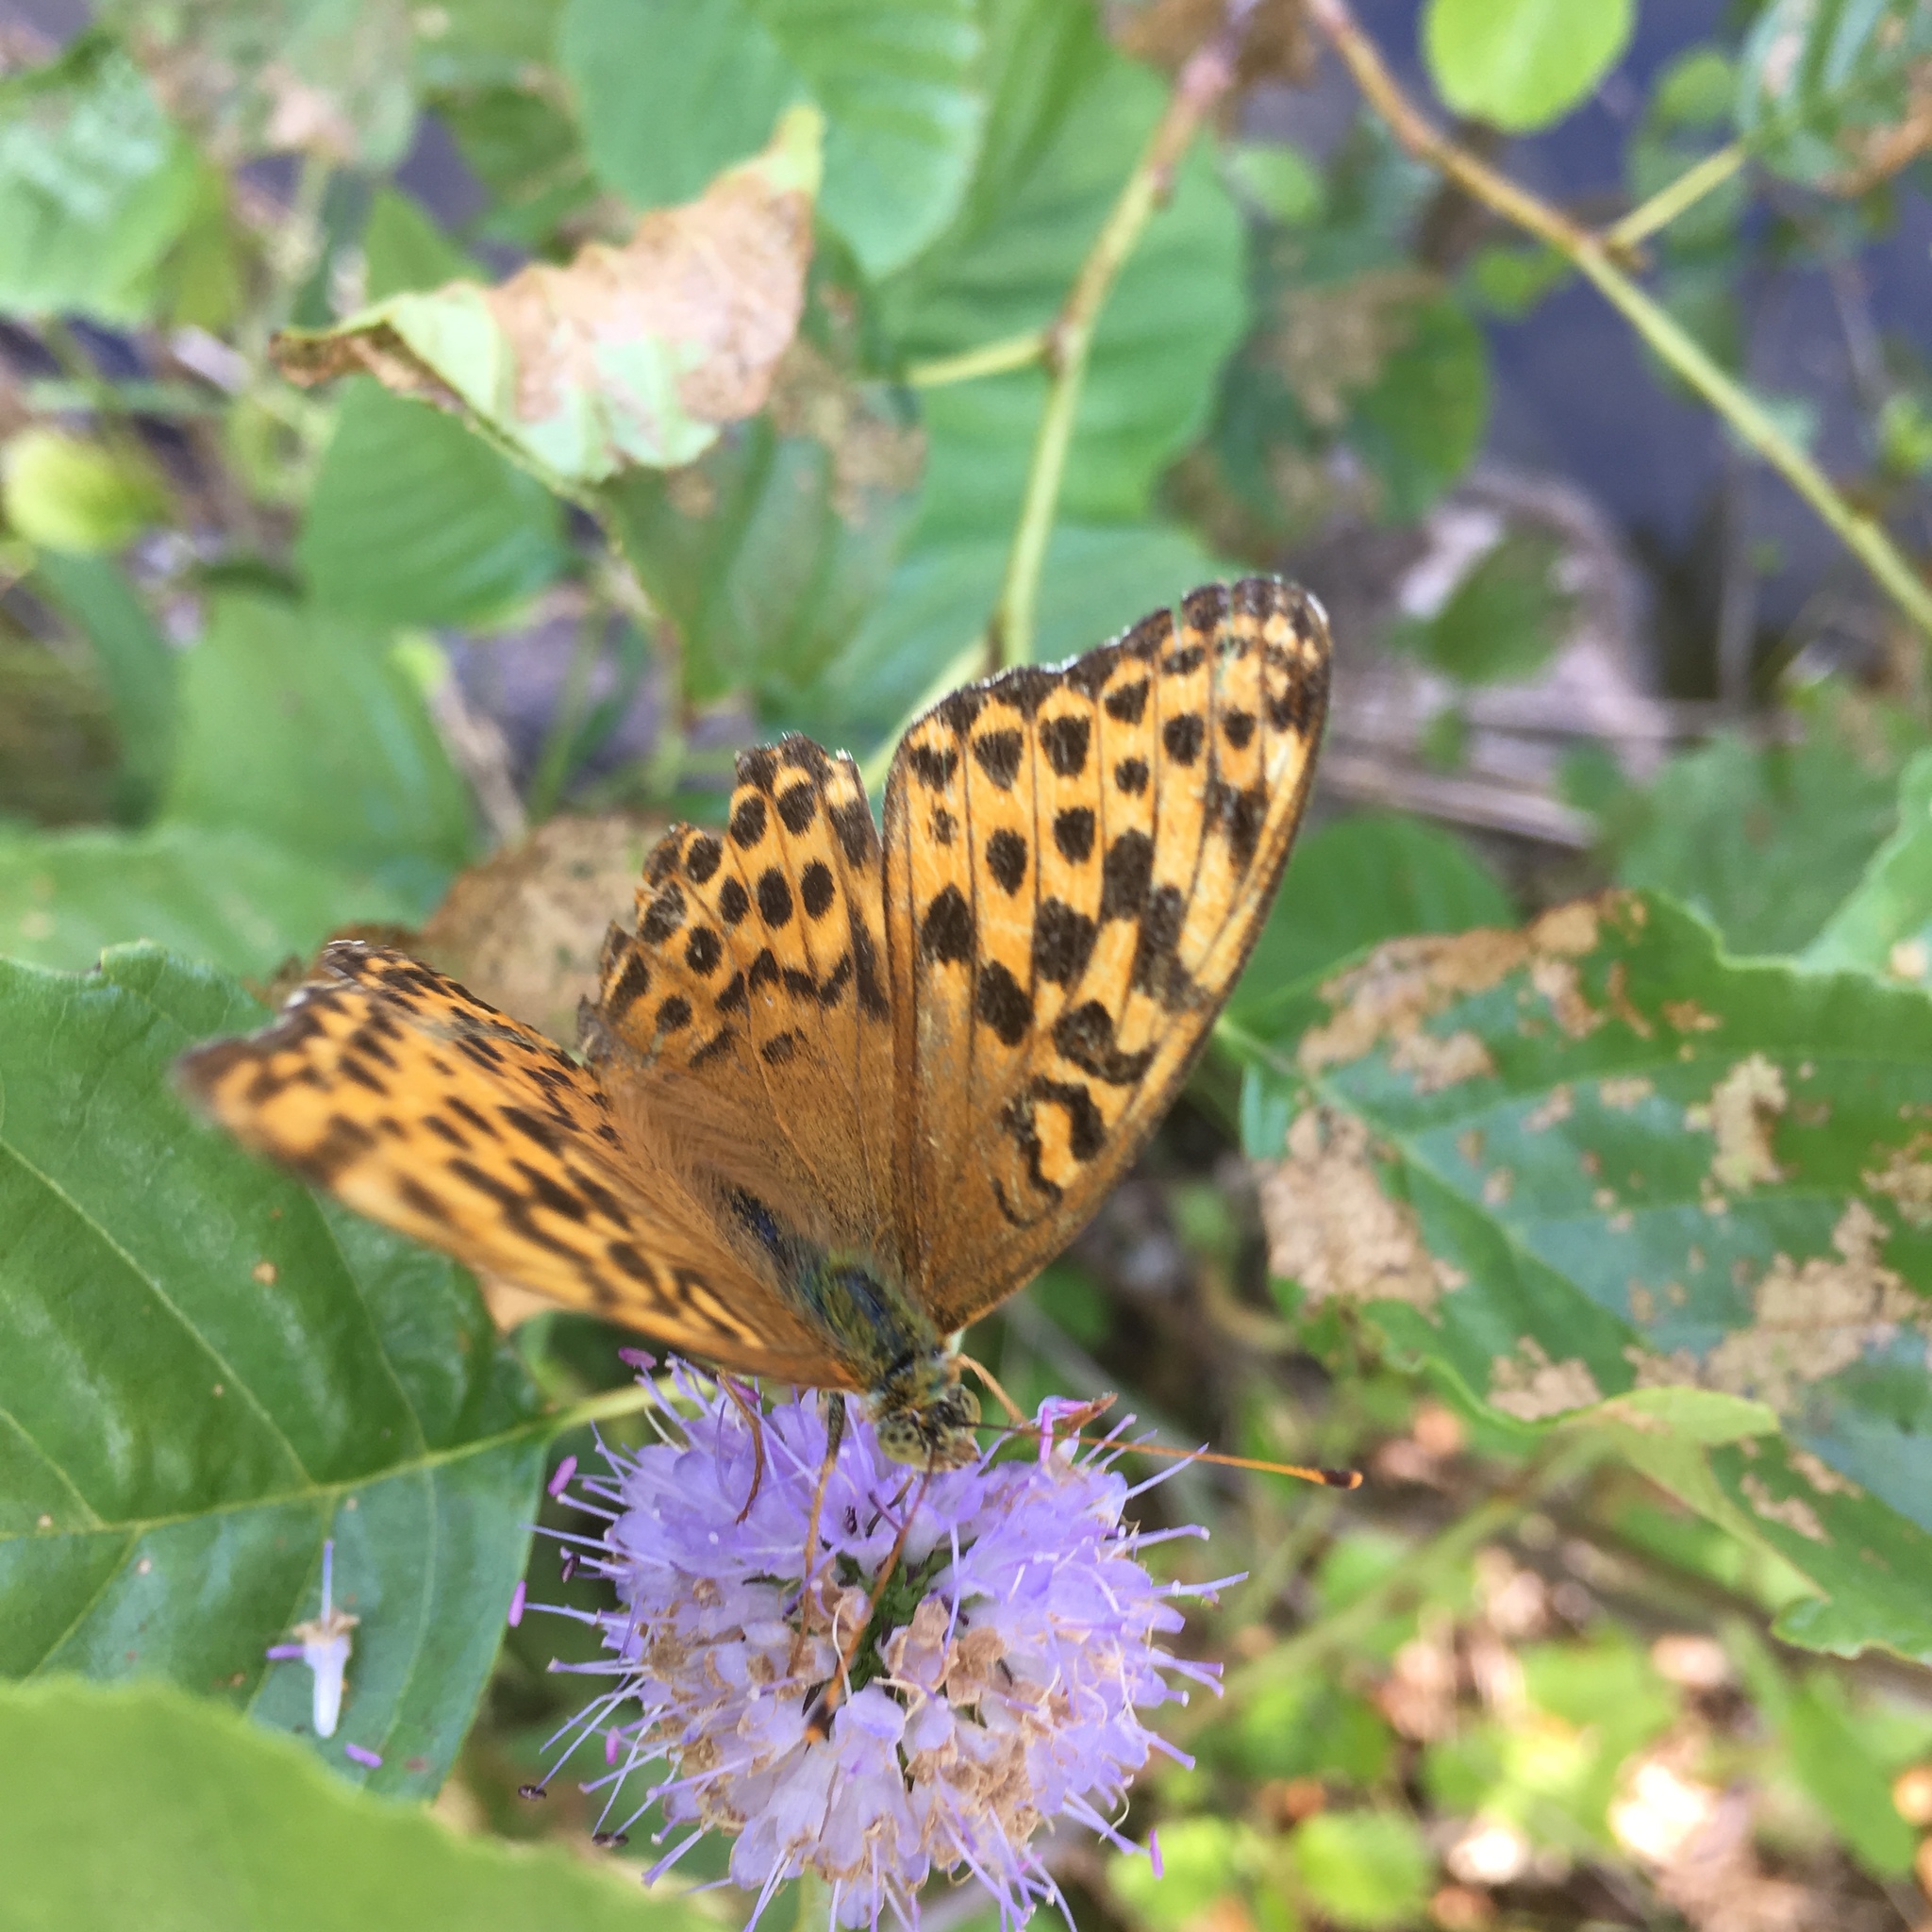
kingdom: Animalia
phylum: Arthropoda
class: Insecta
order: Lepidoptera
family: Nymphalidae
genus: Argynnis
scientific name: Argynnis paphia
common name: Silver-washed fritillary
